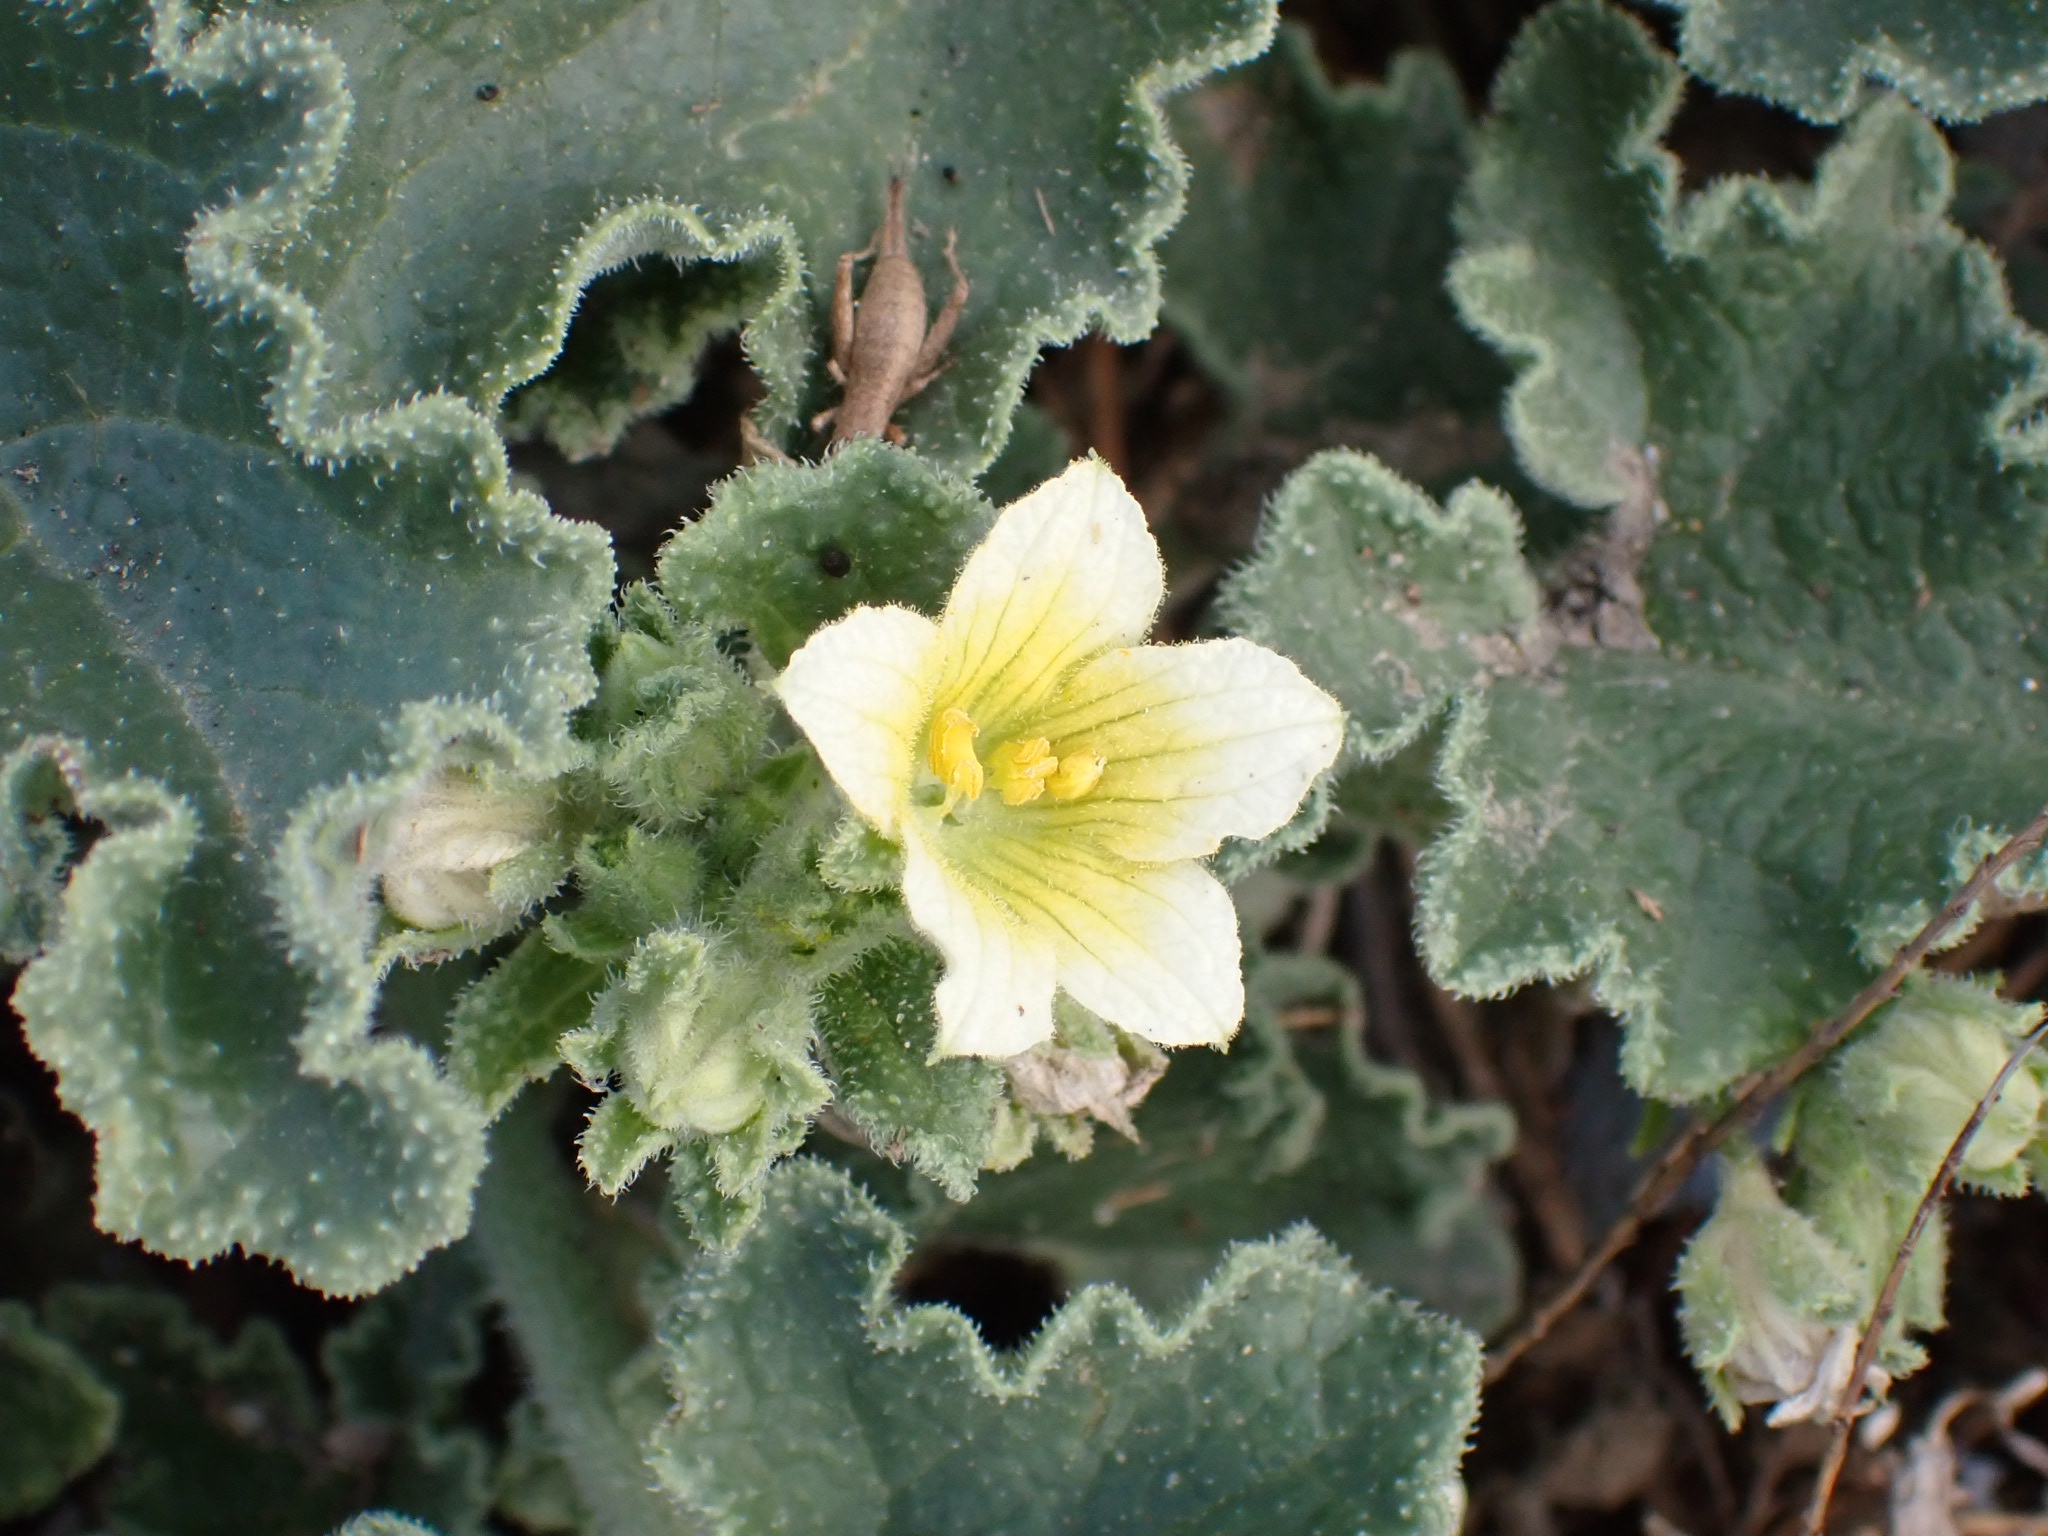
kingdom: Plantae
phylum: Tracheophyta
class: Magnoliopsida
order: Cucurbitales
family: Cucurbitaceae
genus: Ecballium
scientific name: Ecballium elaterium
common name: Squirting cucumber
